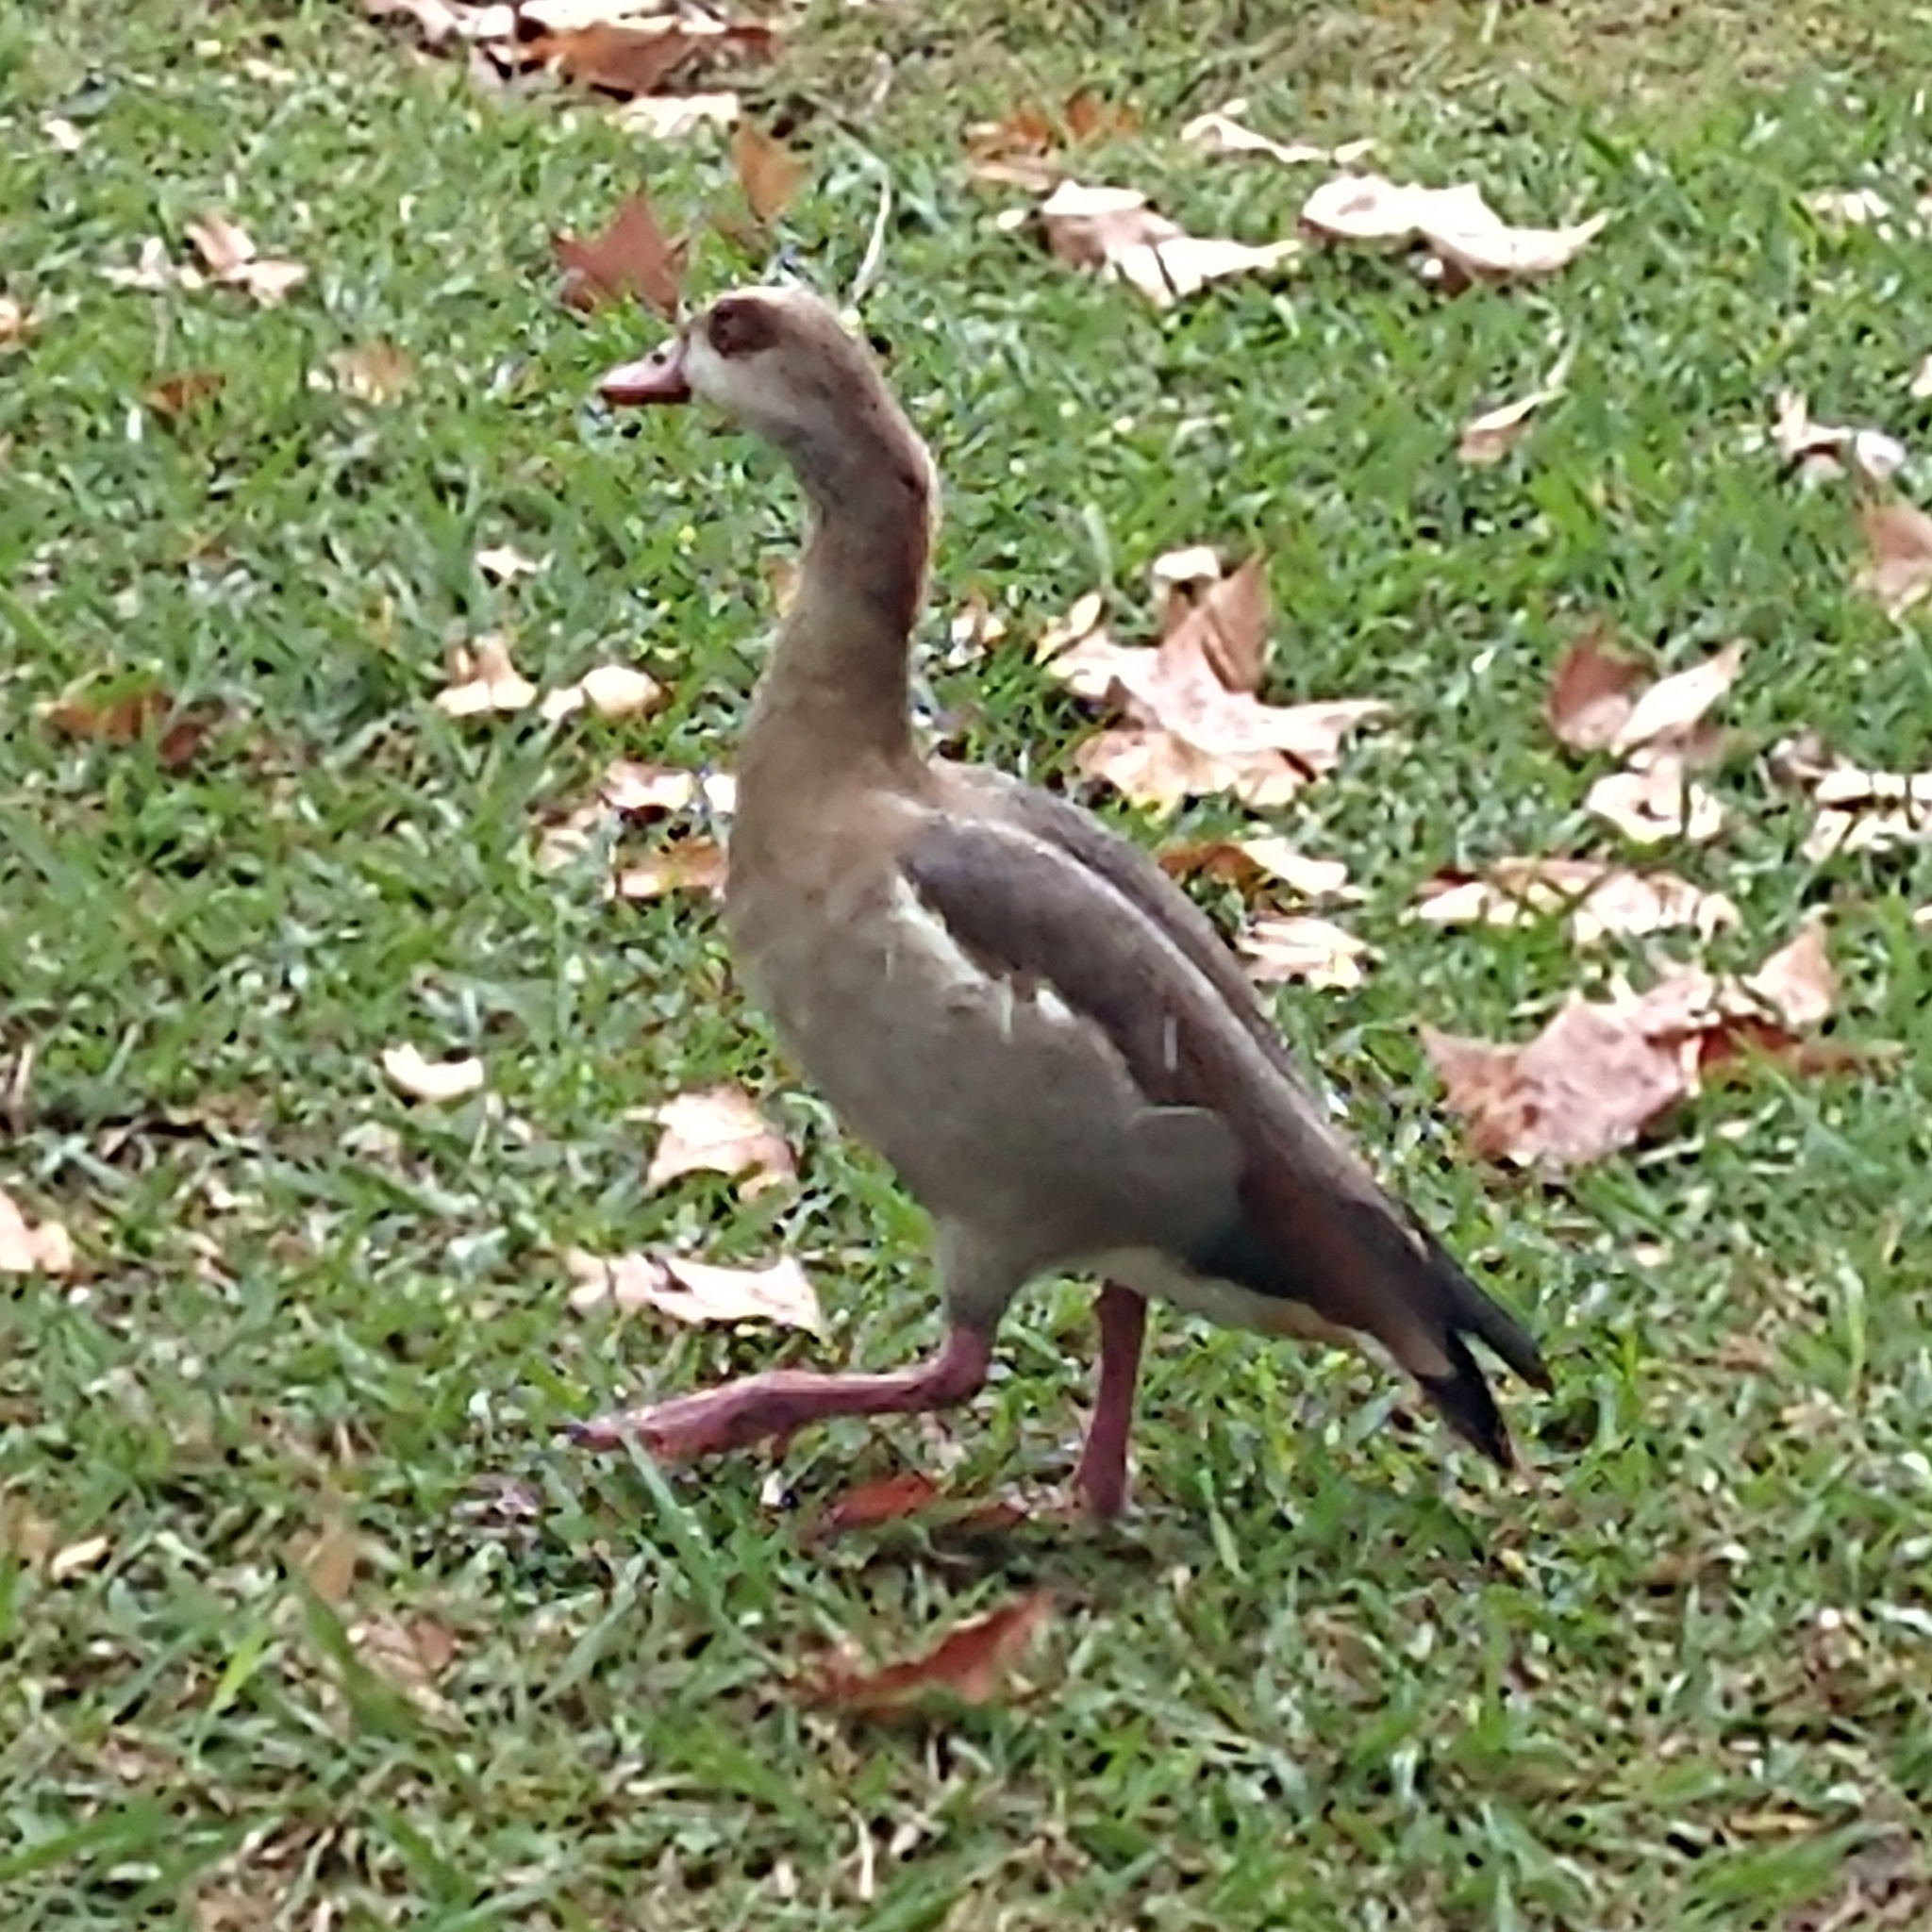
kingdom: Animalia
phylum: Chordata
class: Aves
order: Anseriformes
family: Anatidae
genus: Alopochen
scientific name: Alopochen aegyptiaca
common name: Egyptian goose
